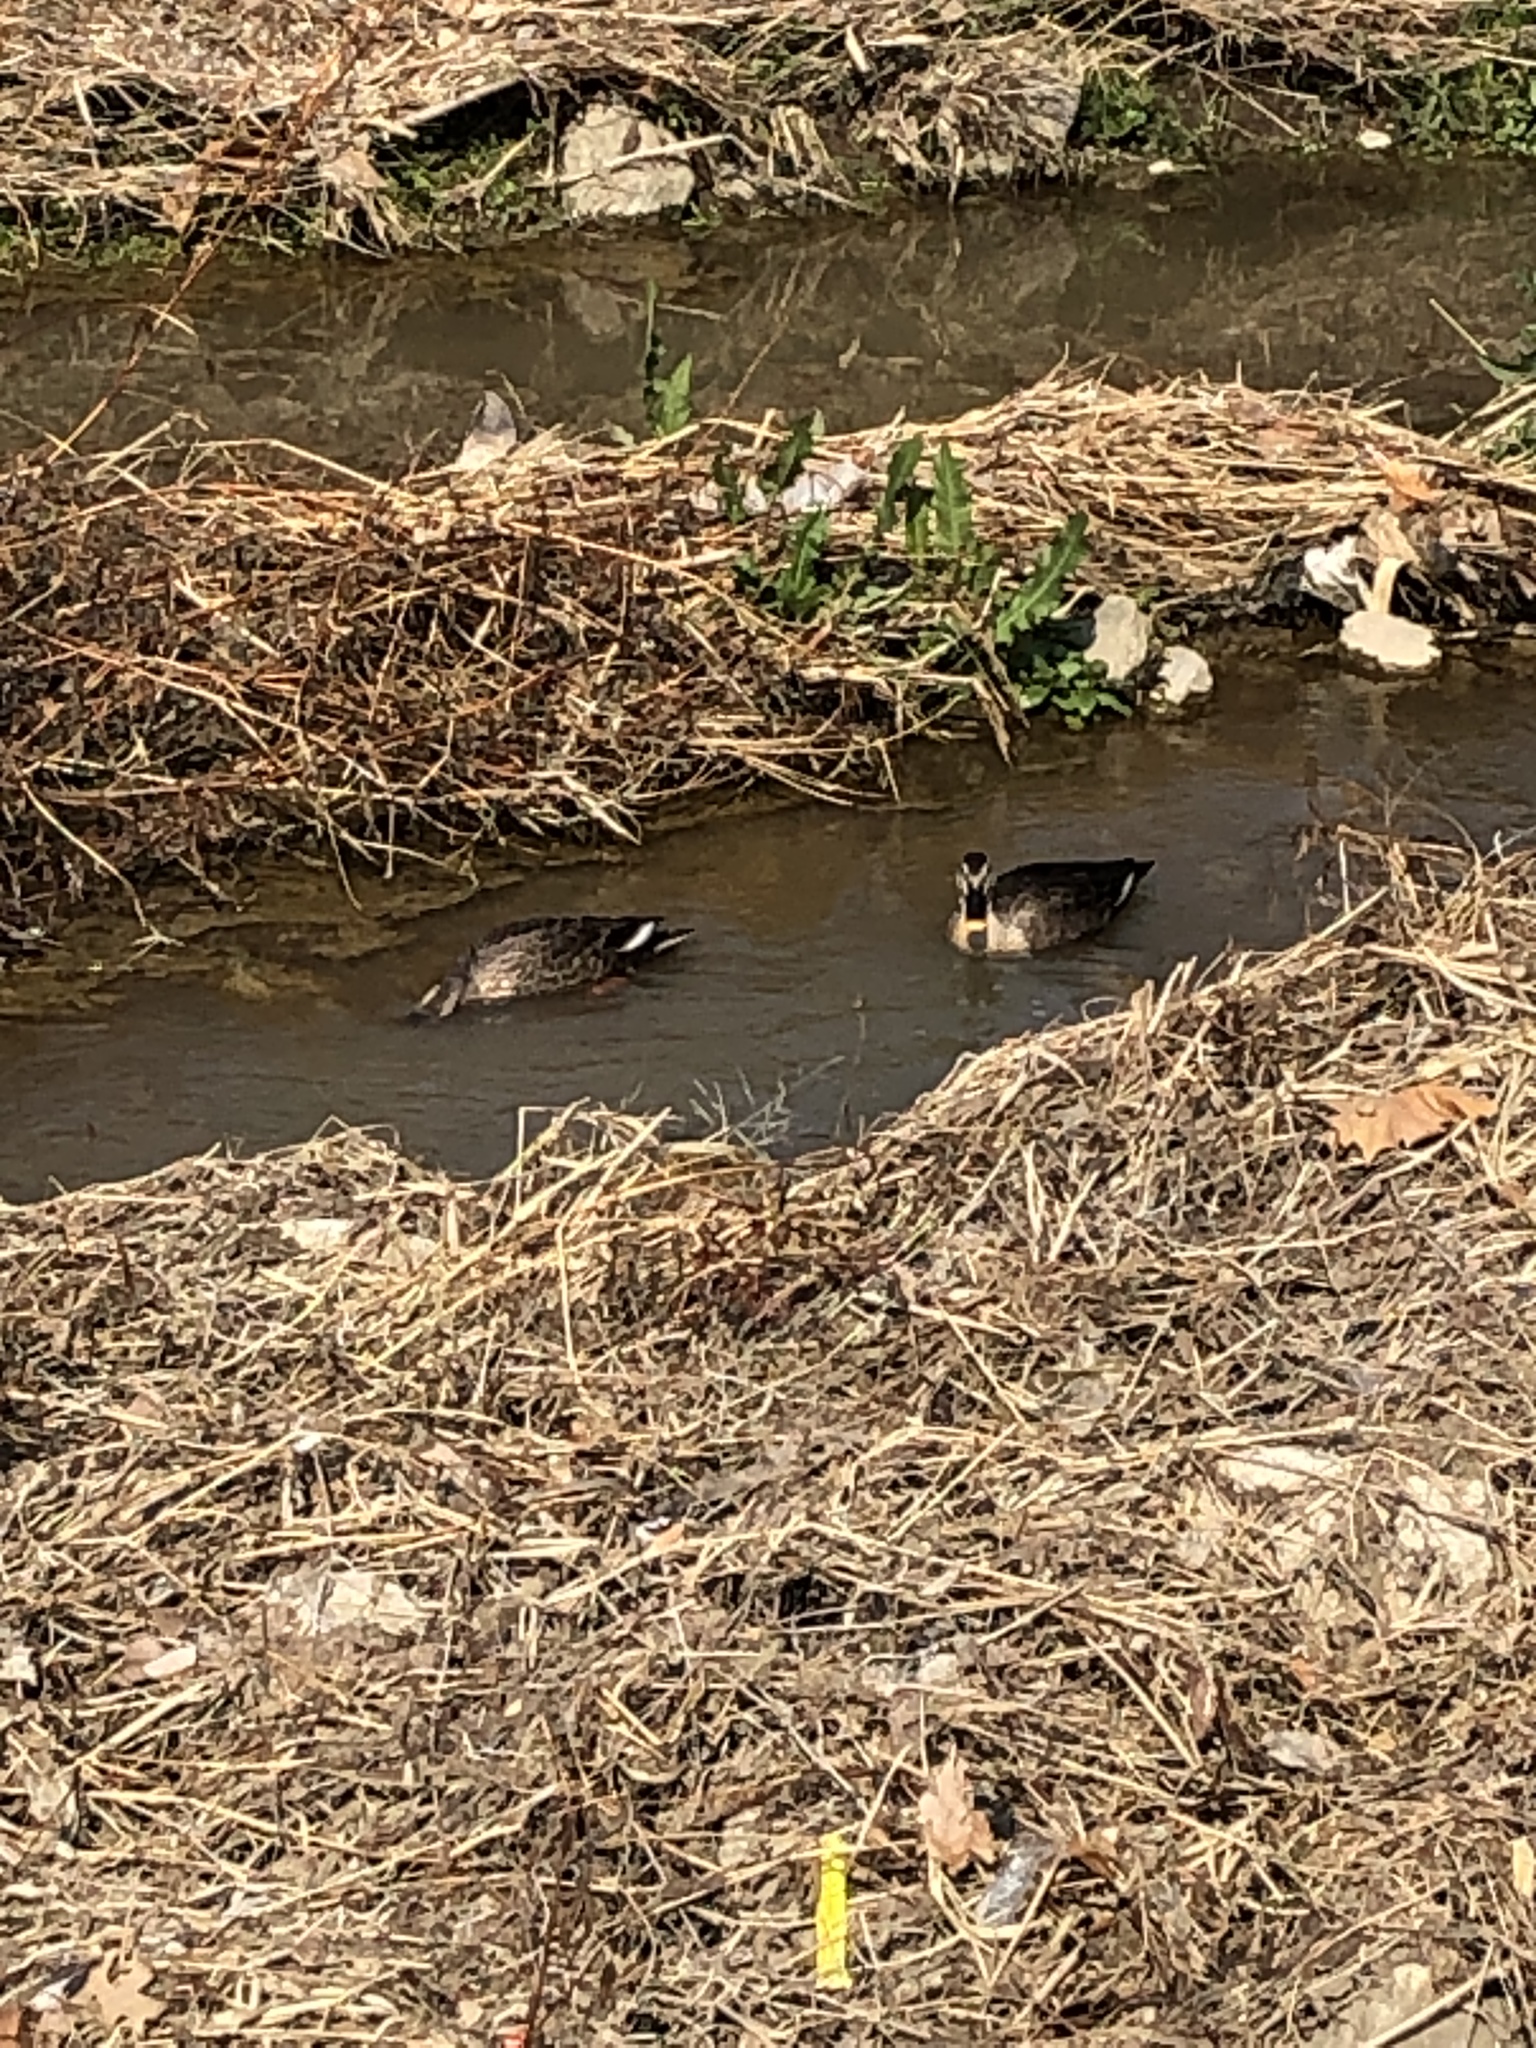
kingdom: Animalia
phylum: Chordata
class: Aves
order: Anseriformes
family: Anatidae
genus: Anas
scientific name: Anas zonorhyncha
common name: Eastern spot-billed duck
